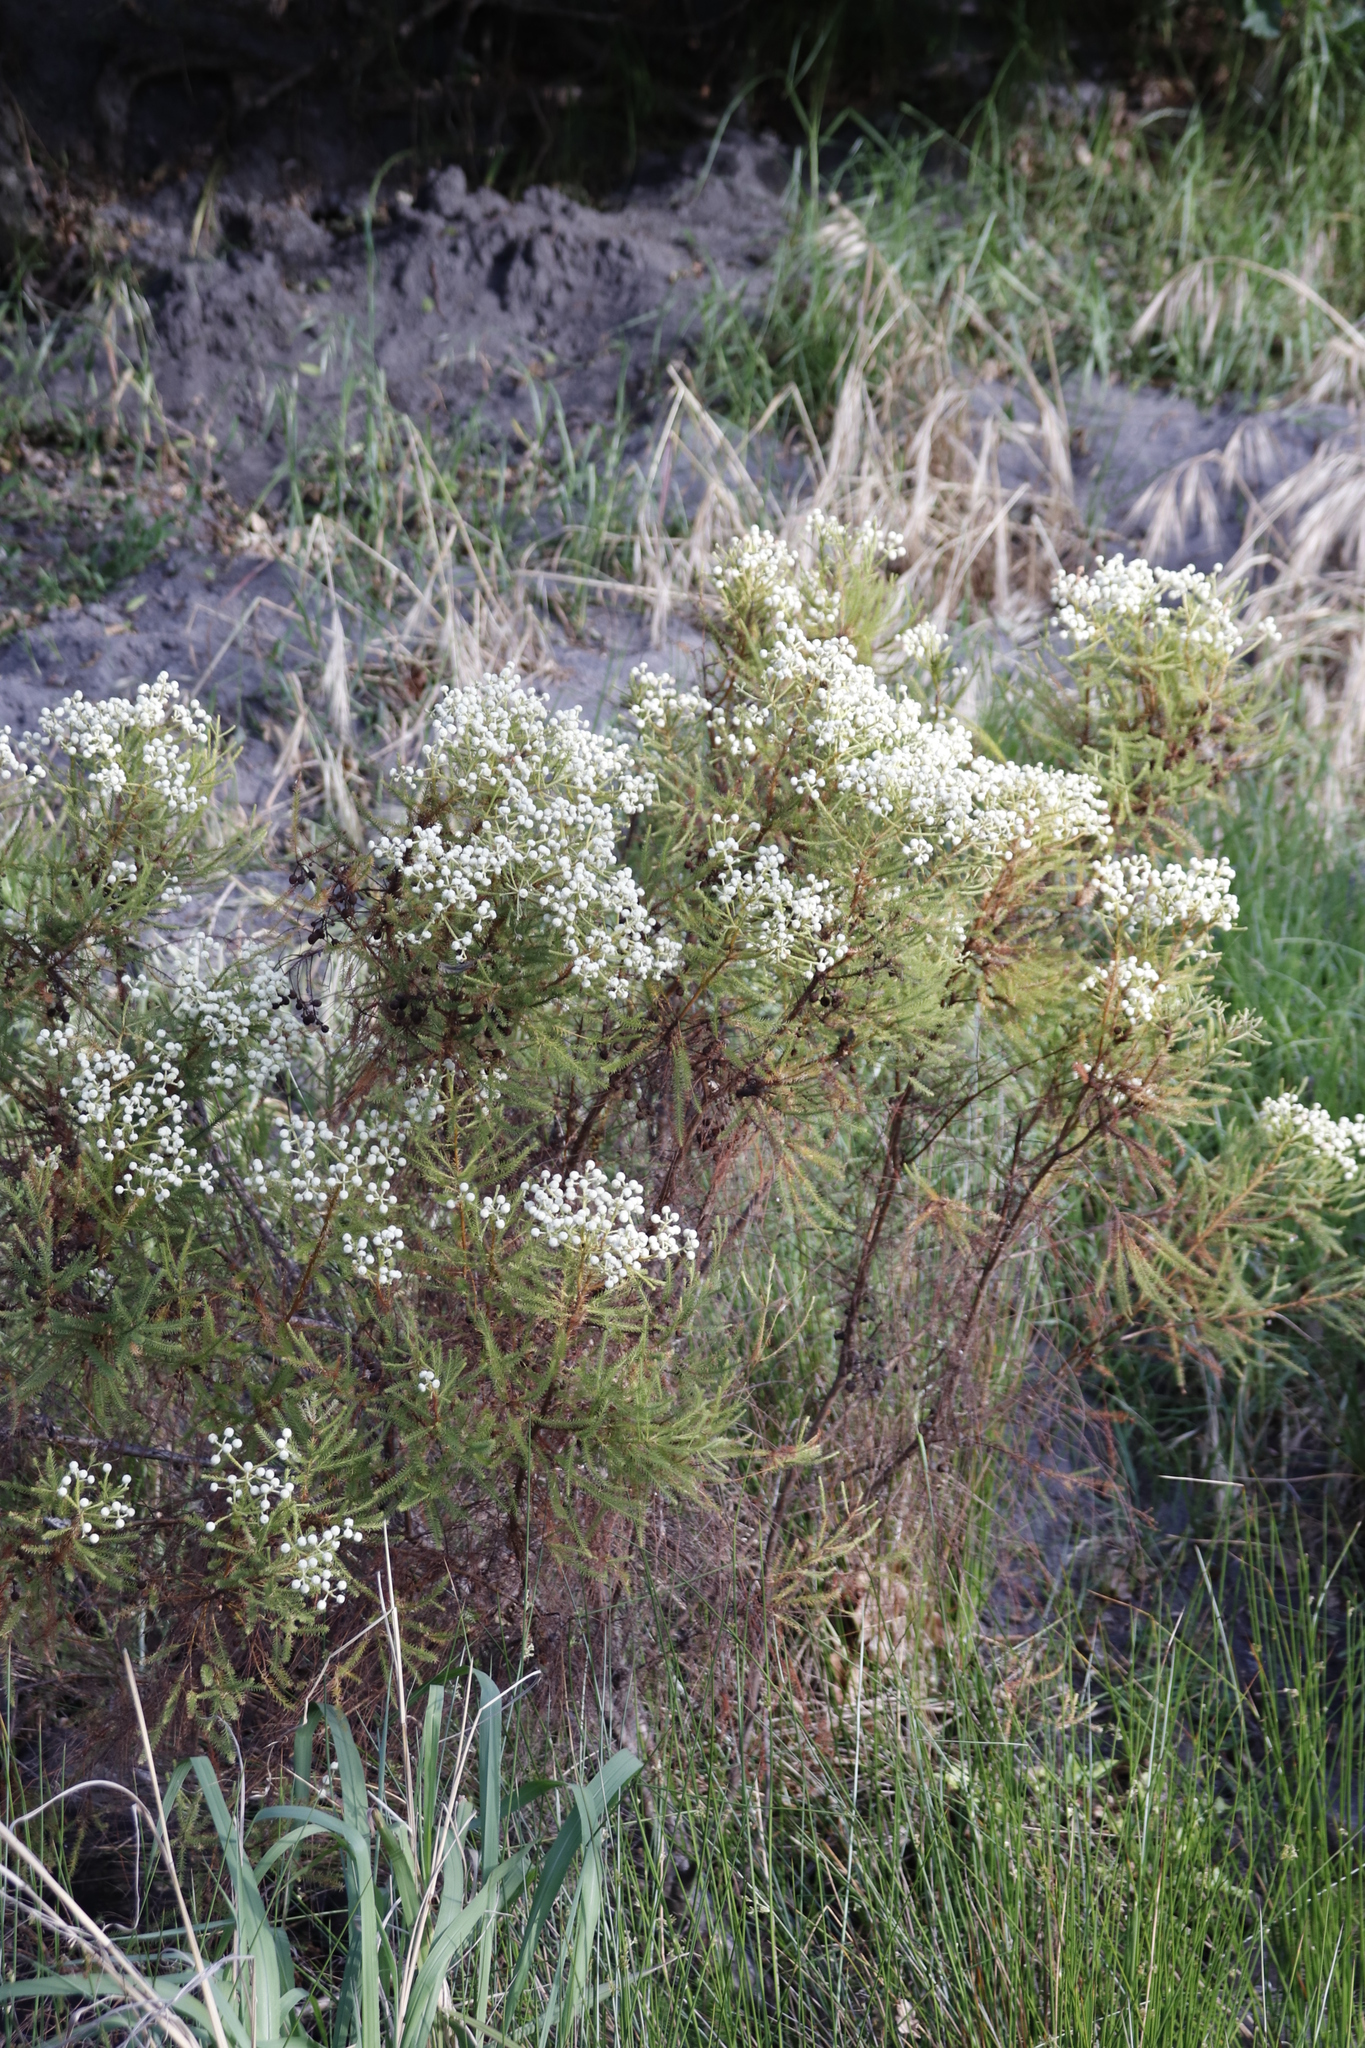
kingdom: Plantae
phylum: Tracheophyta
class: Magnoliopsida
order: Bruniales
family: Bruniaceae
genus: Berzelia
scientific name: Berzelia lanuginosa
